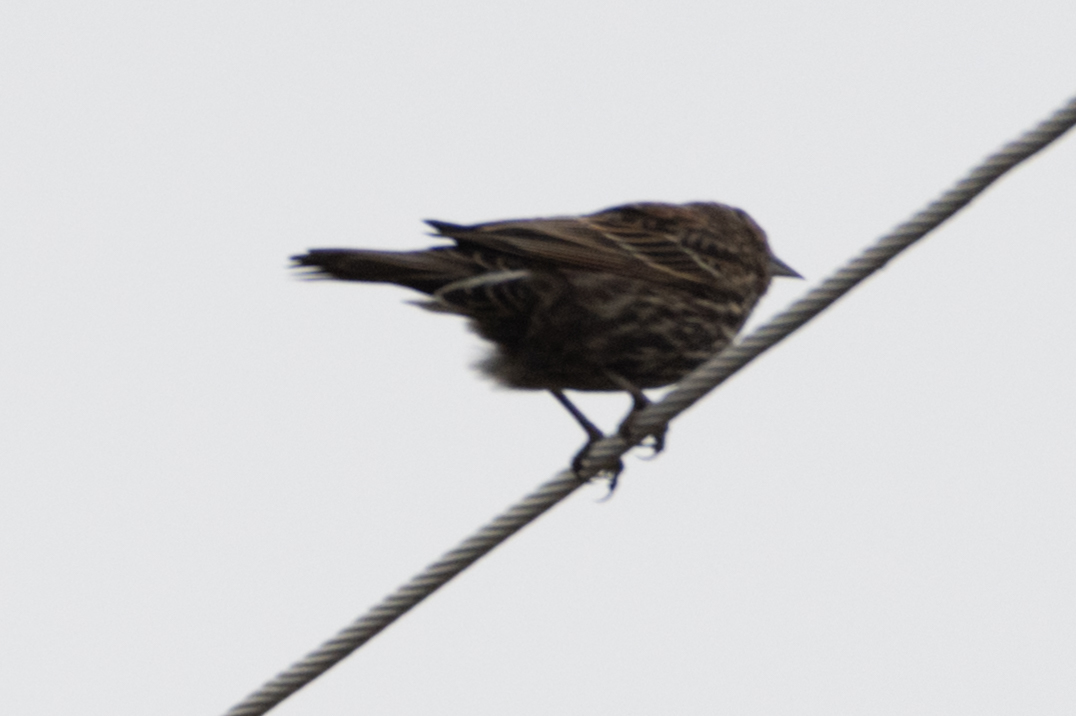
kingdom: Animalia
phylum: Chordata
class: Aves
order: Passeriformes
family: Icteridae
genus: Agelaius
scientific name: Agelaius phoeniceus
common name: Red-winged blackbird
